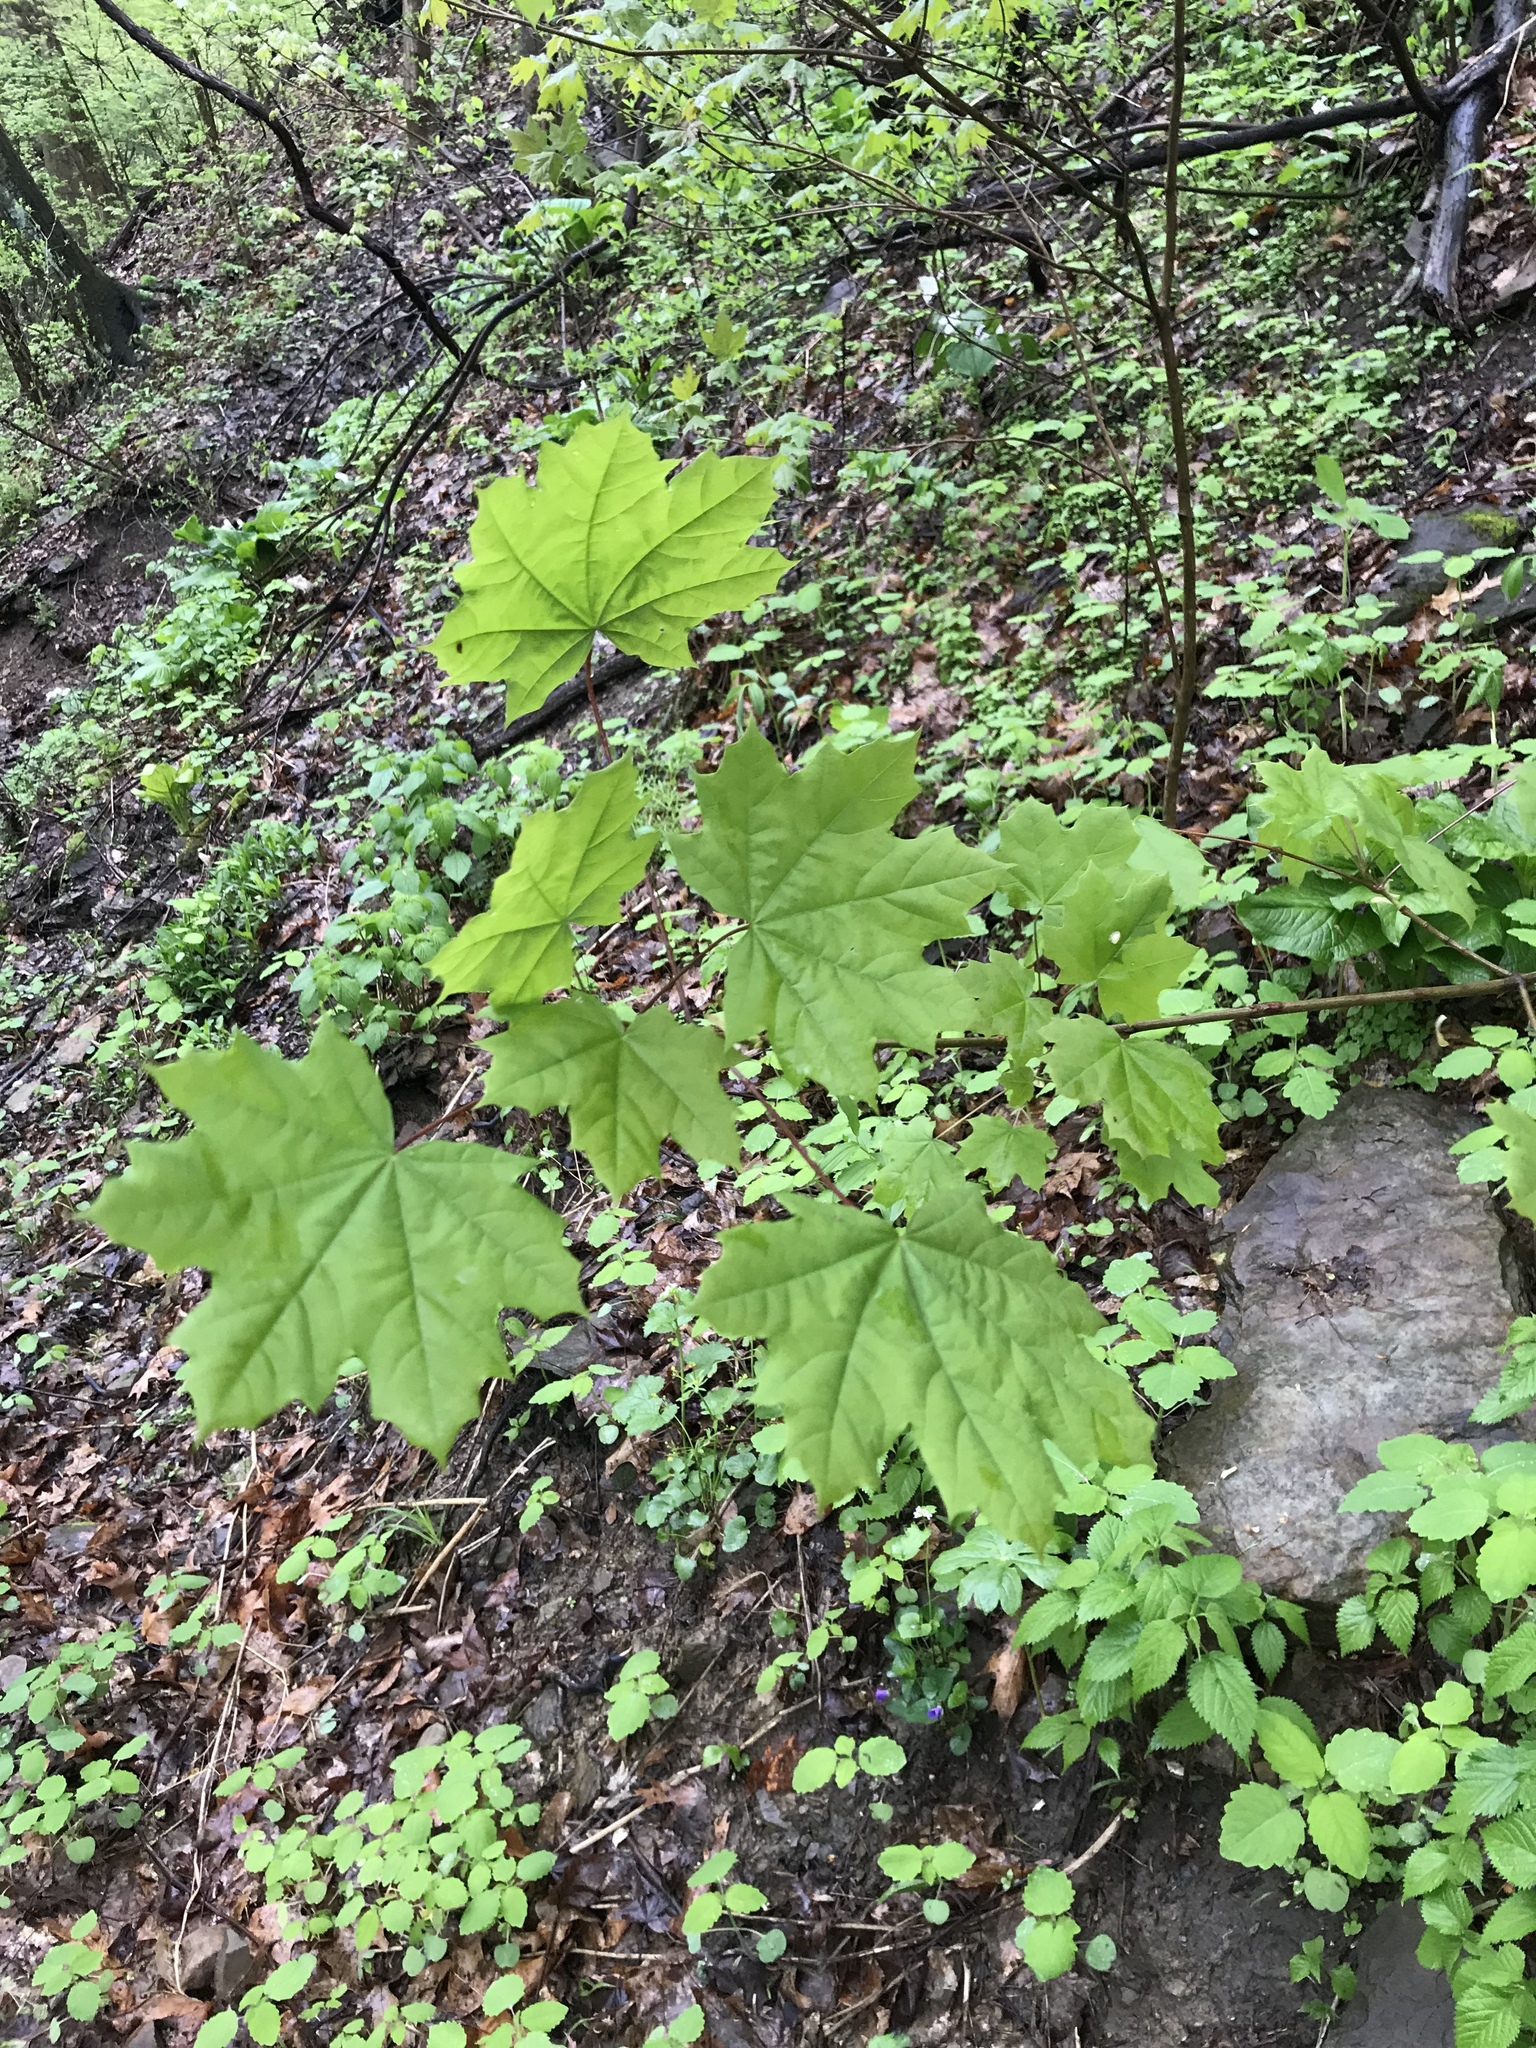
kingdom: Plantae
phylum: Tracheophyta
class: Magnoliopsida
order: Sapindales
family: Sapindaceae
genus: Acer
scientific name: Acer platanoides
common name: Norway maple
